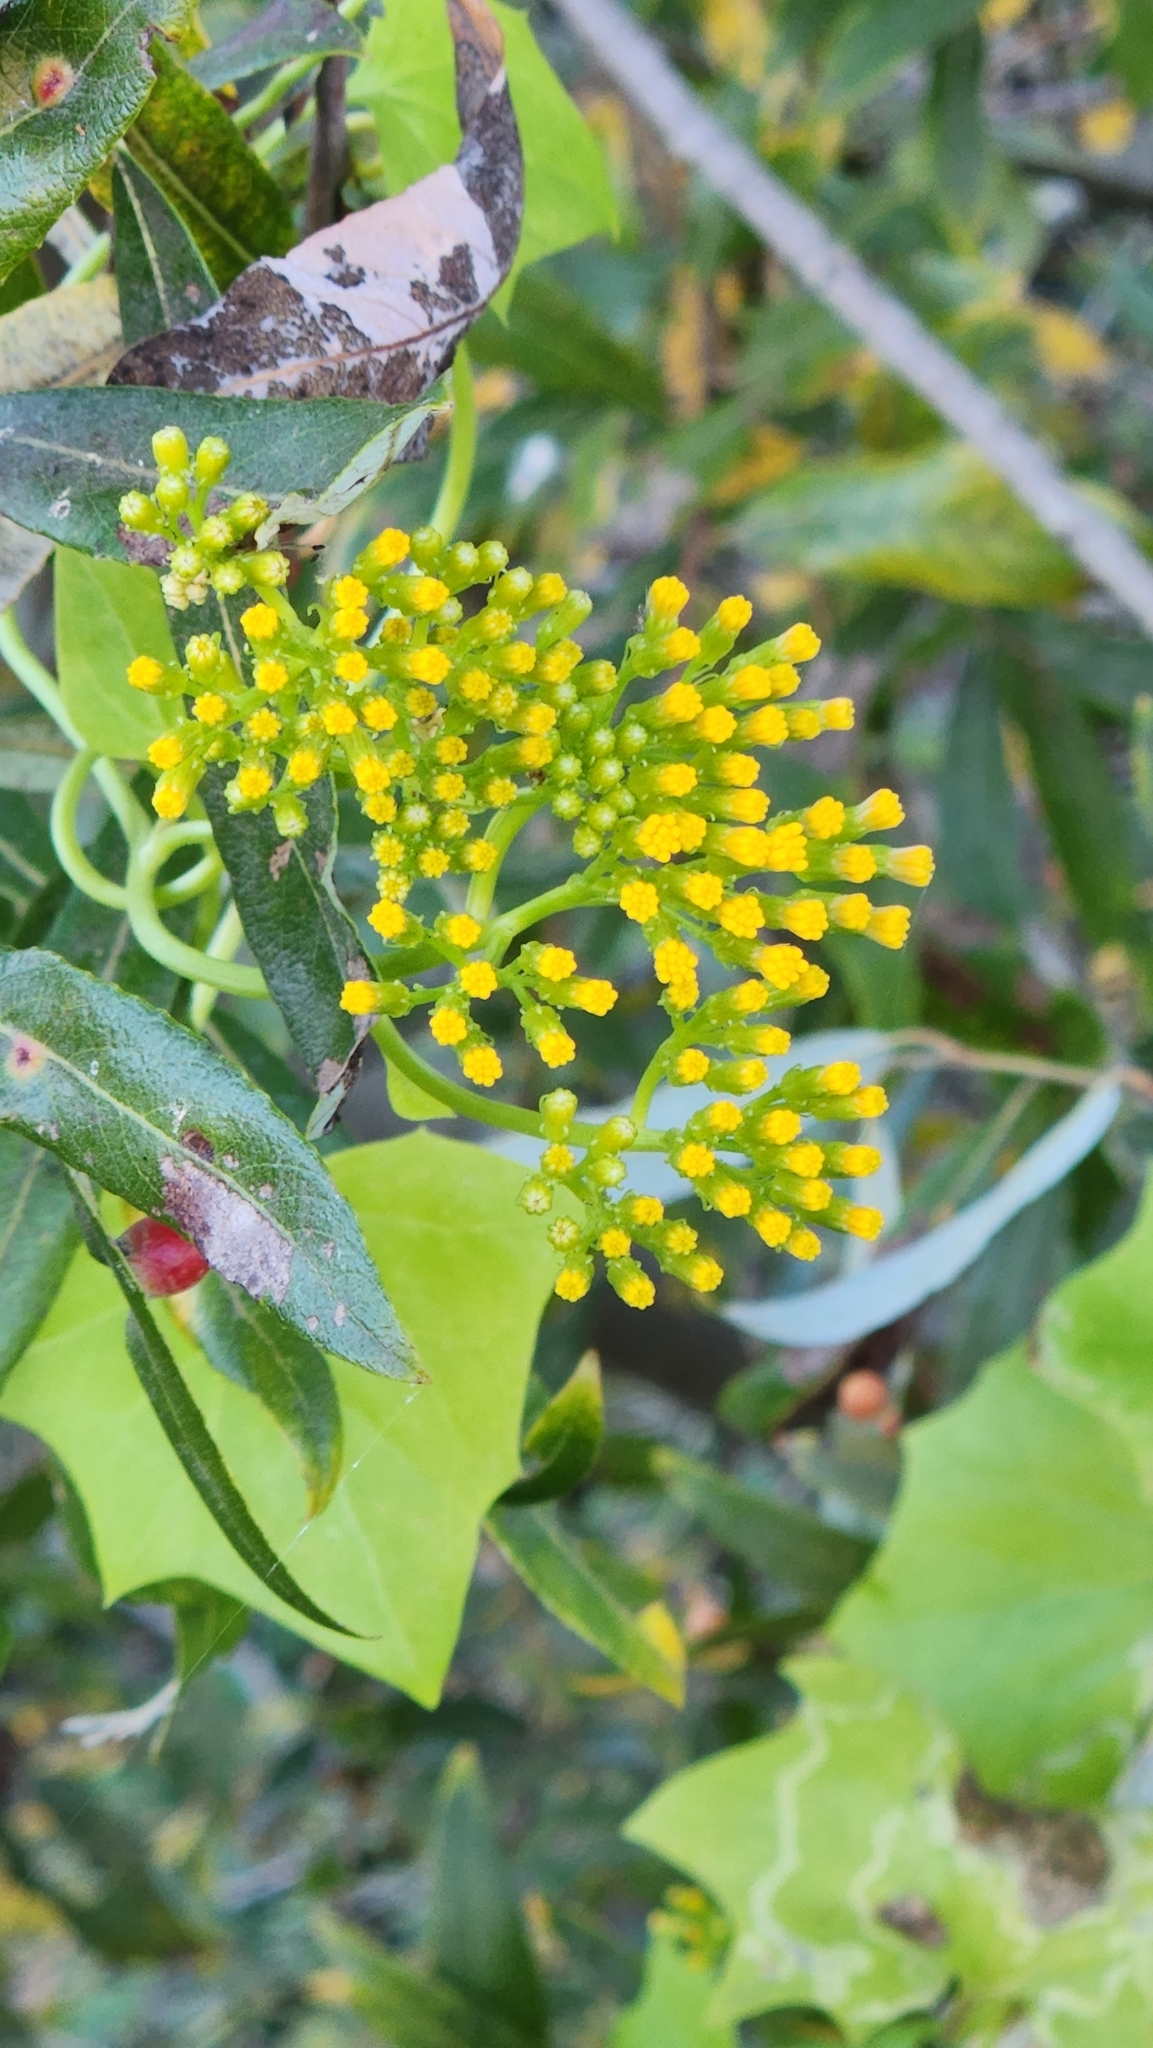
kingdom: Plantae
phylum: Tracheophyta
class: Magnoliopsida
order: Asterales
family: Asteraceae
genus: Delairea
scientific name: Delairea odorata
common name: Cape-ivy
